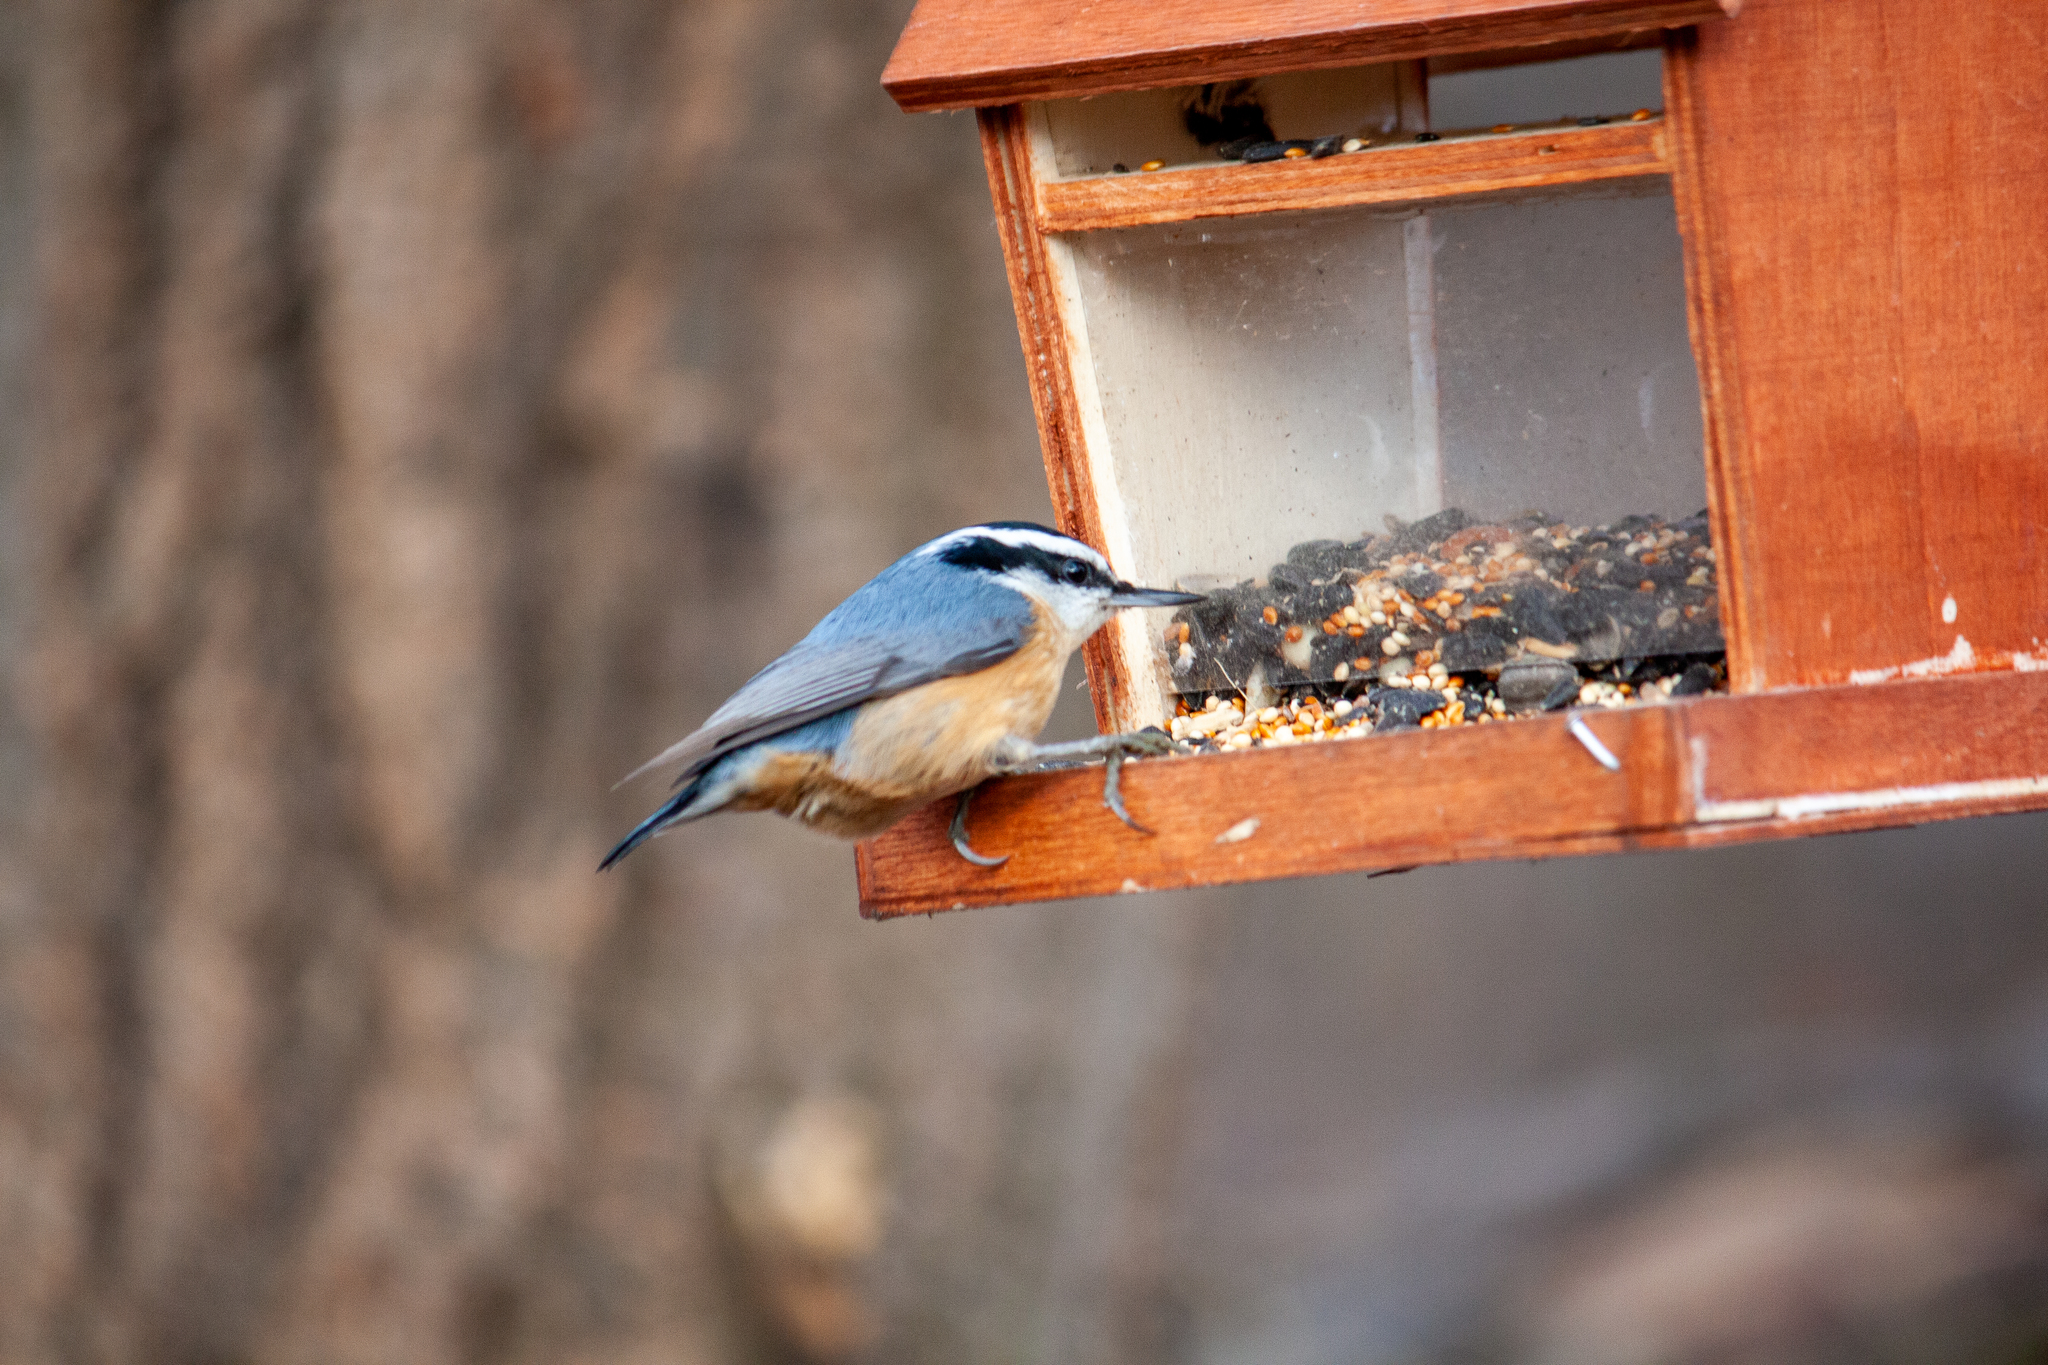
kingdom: Animalia
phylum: Chordata
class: Aves
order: Passeriformes
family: Sittidae
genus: Sitta
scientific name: Sitta canadensis
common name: Red-breasted nuthatch
